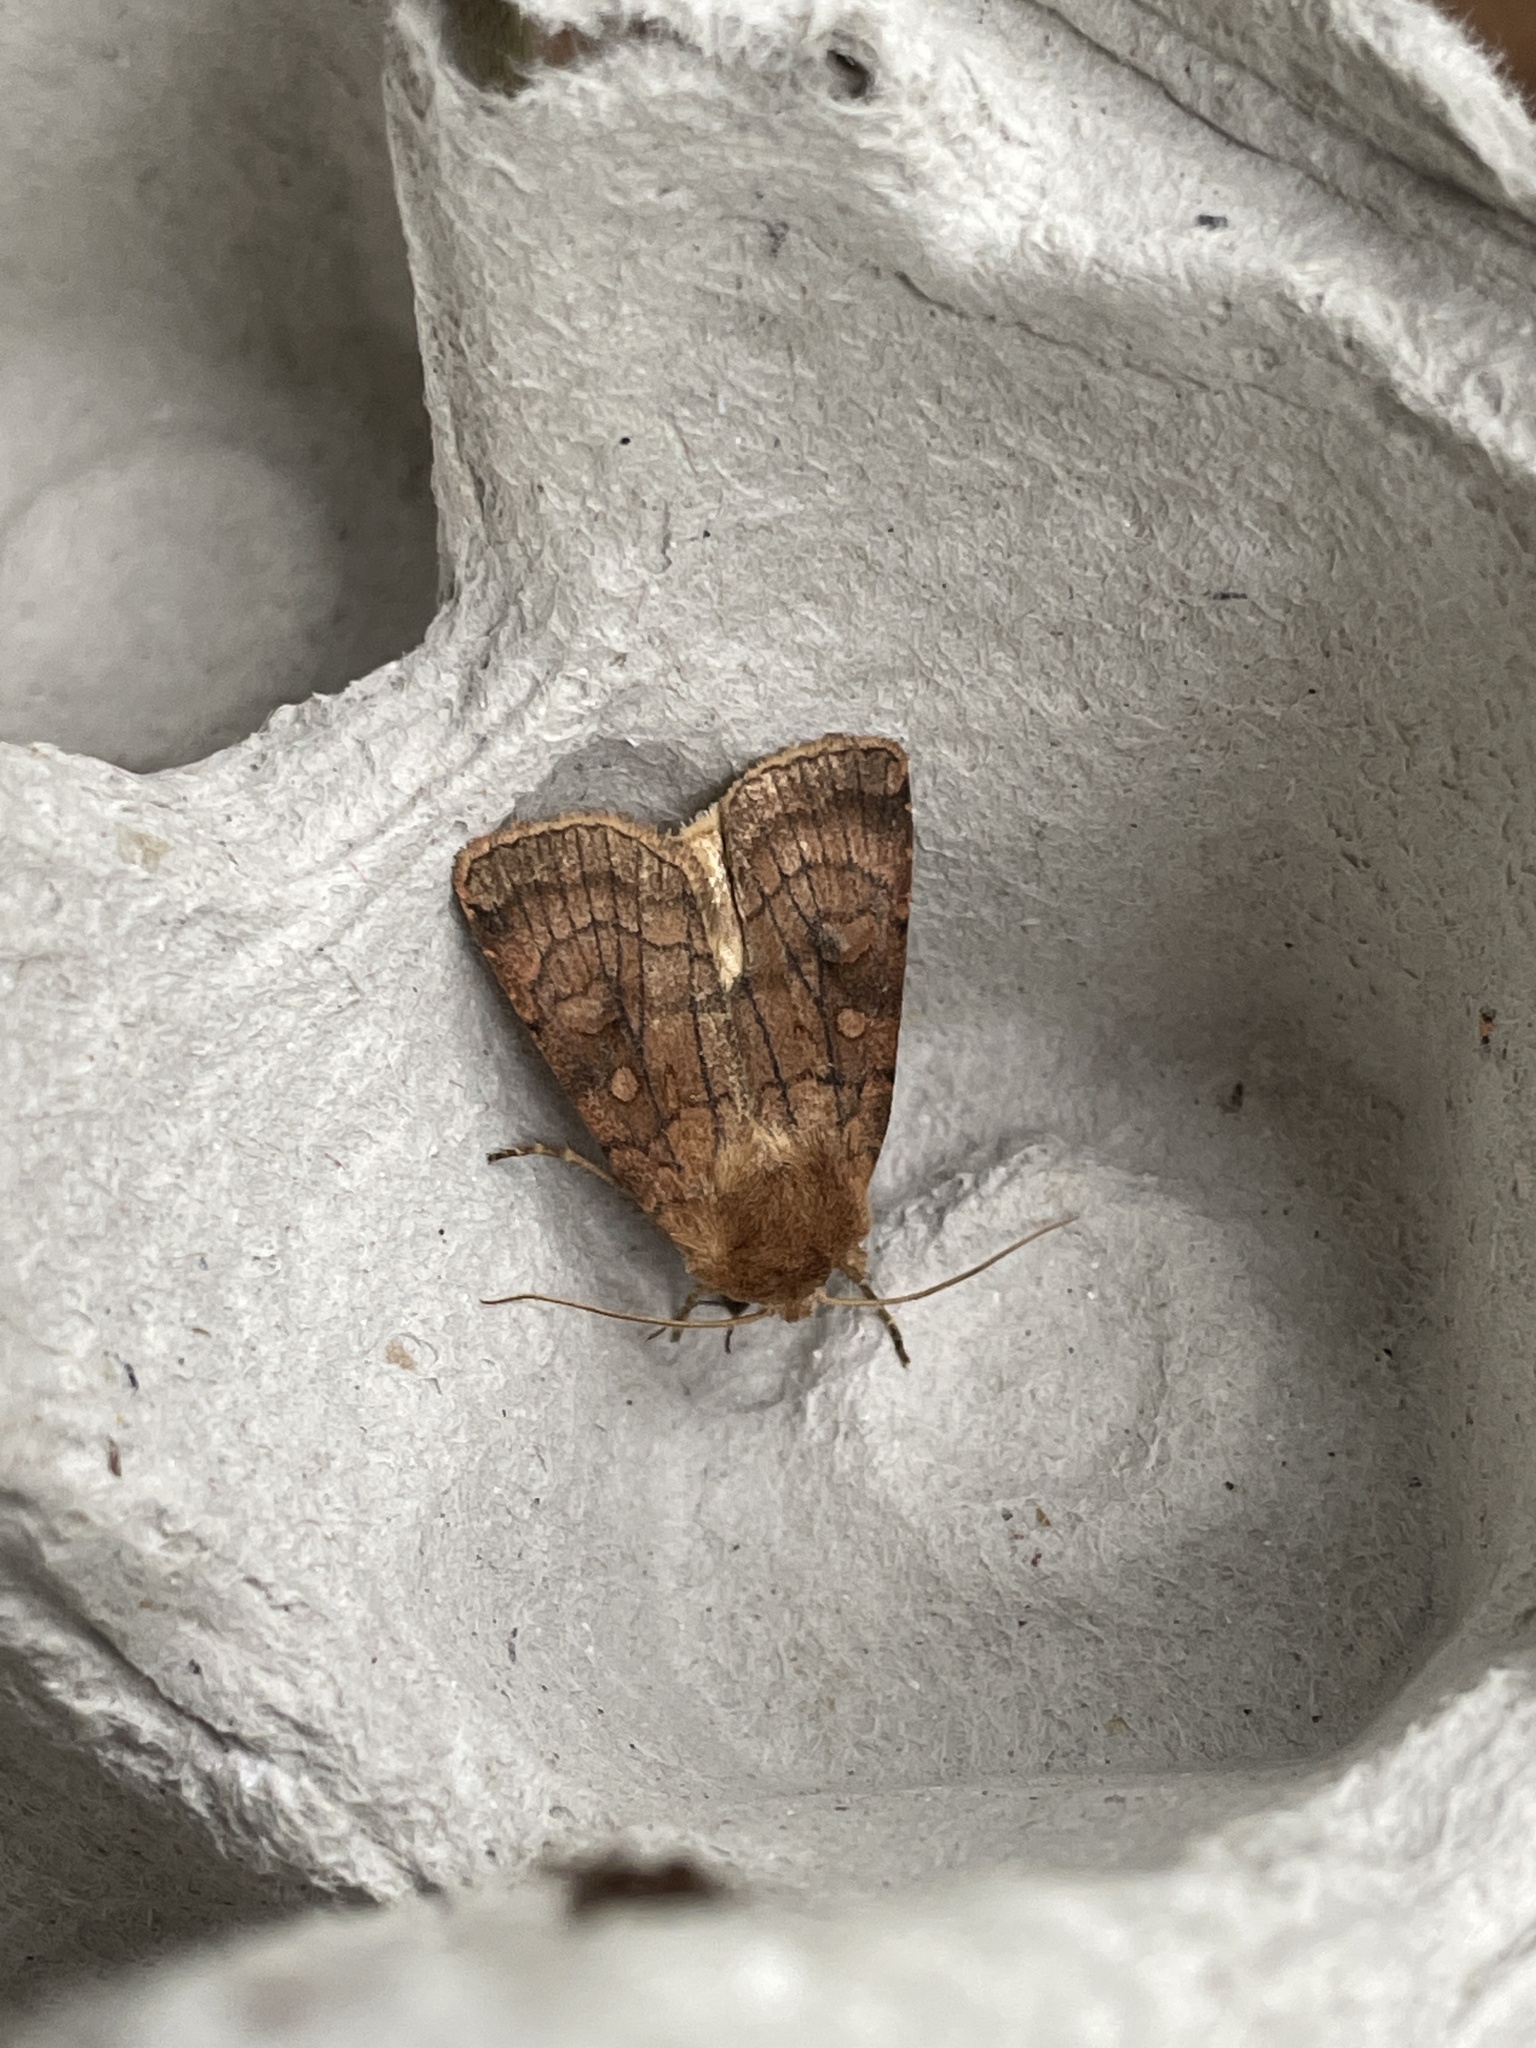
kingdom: Animalia
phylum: Arthropoda
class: Insecta
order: Lepidoptera
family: Noctuidae
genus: Xestia
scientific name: Xestia sexstrigata
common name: Six-striped rustic
